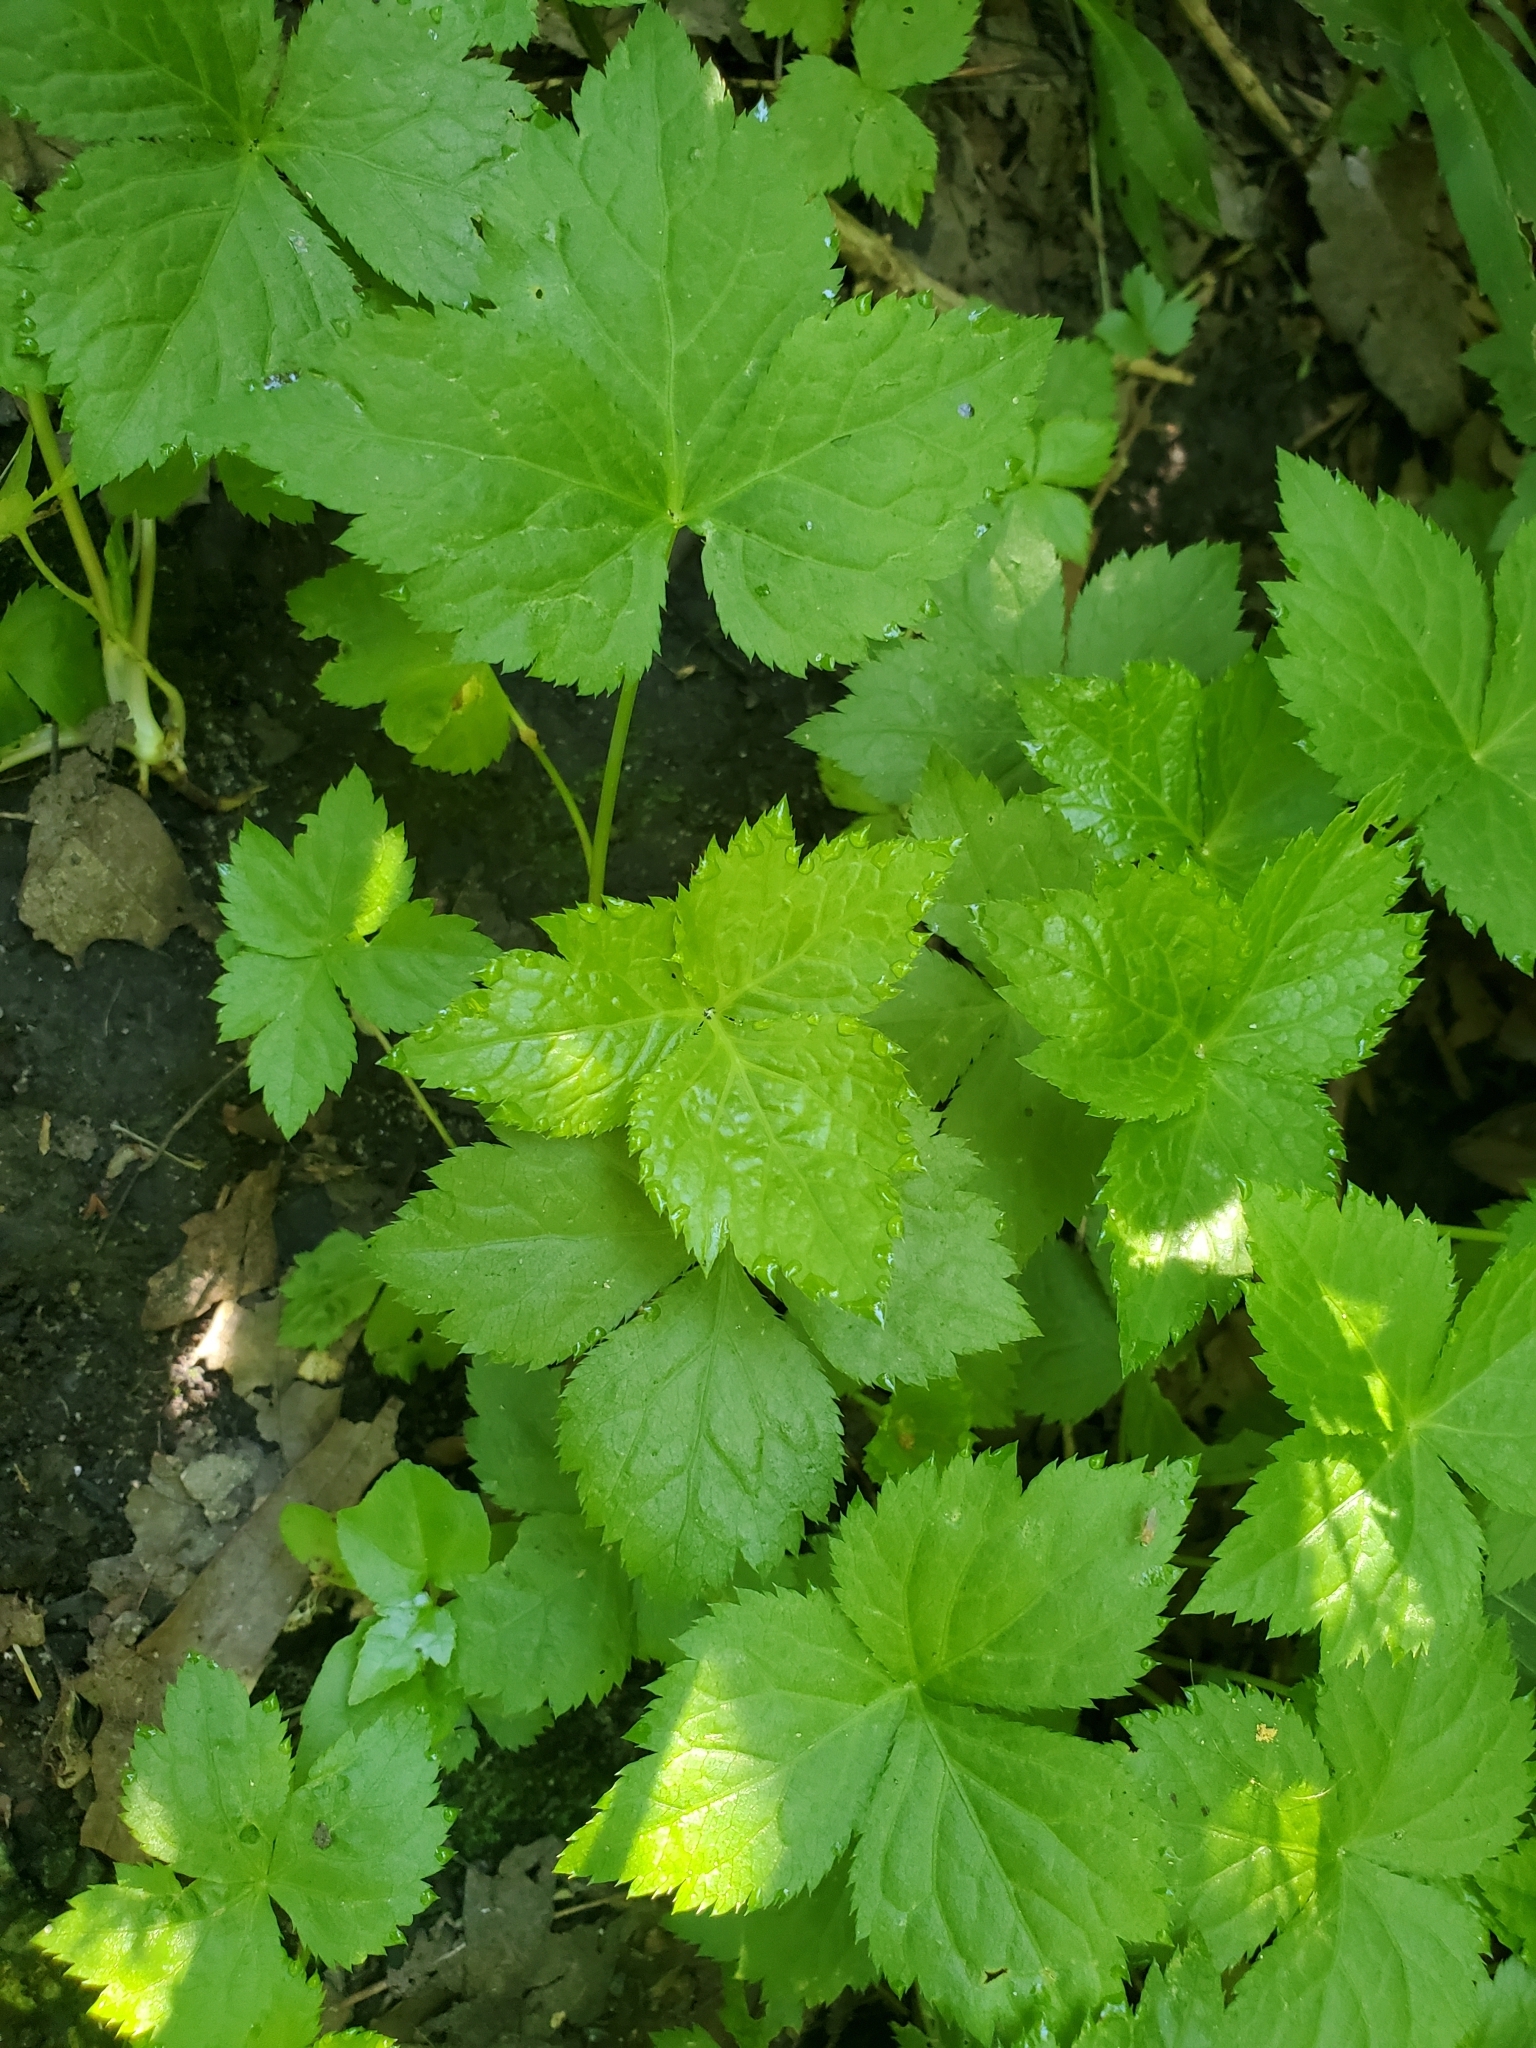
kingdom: Plantae
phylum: Tracheophyta
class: Magnoliopsida
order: Apiales
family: Apiaceae
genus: Cryptotaenia
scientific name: Cryptotaenia canadensis
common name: Honewort
